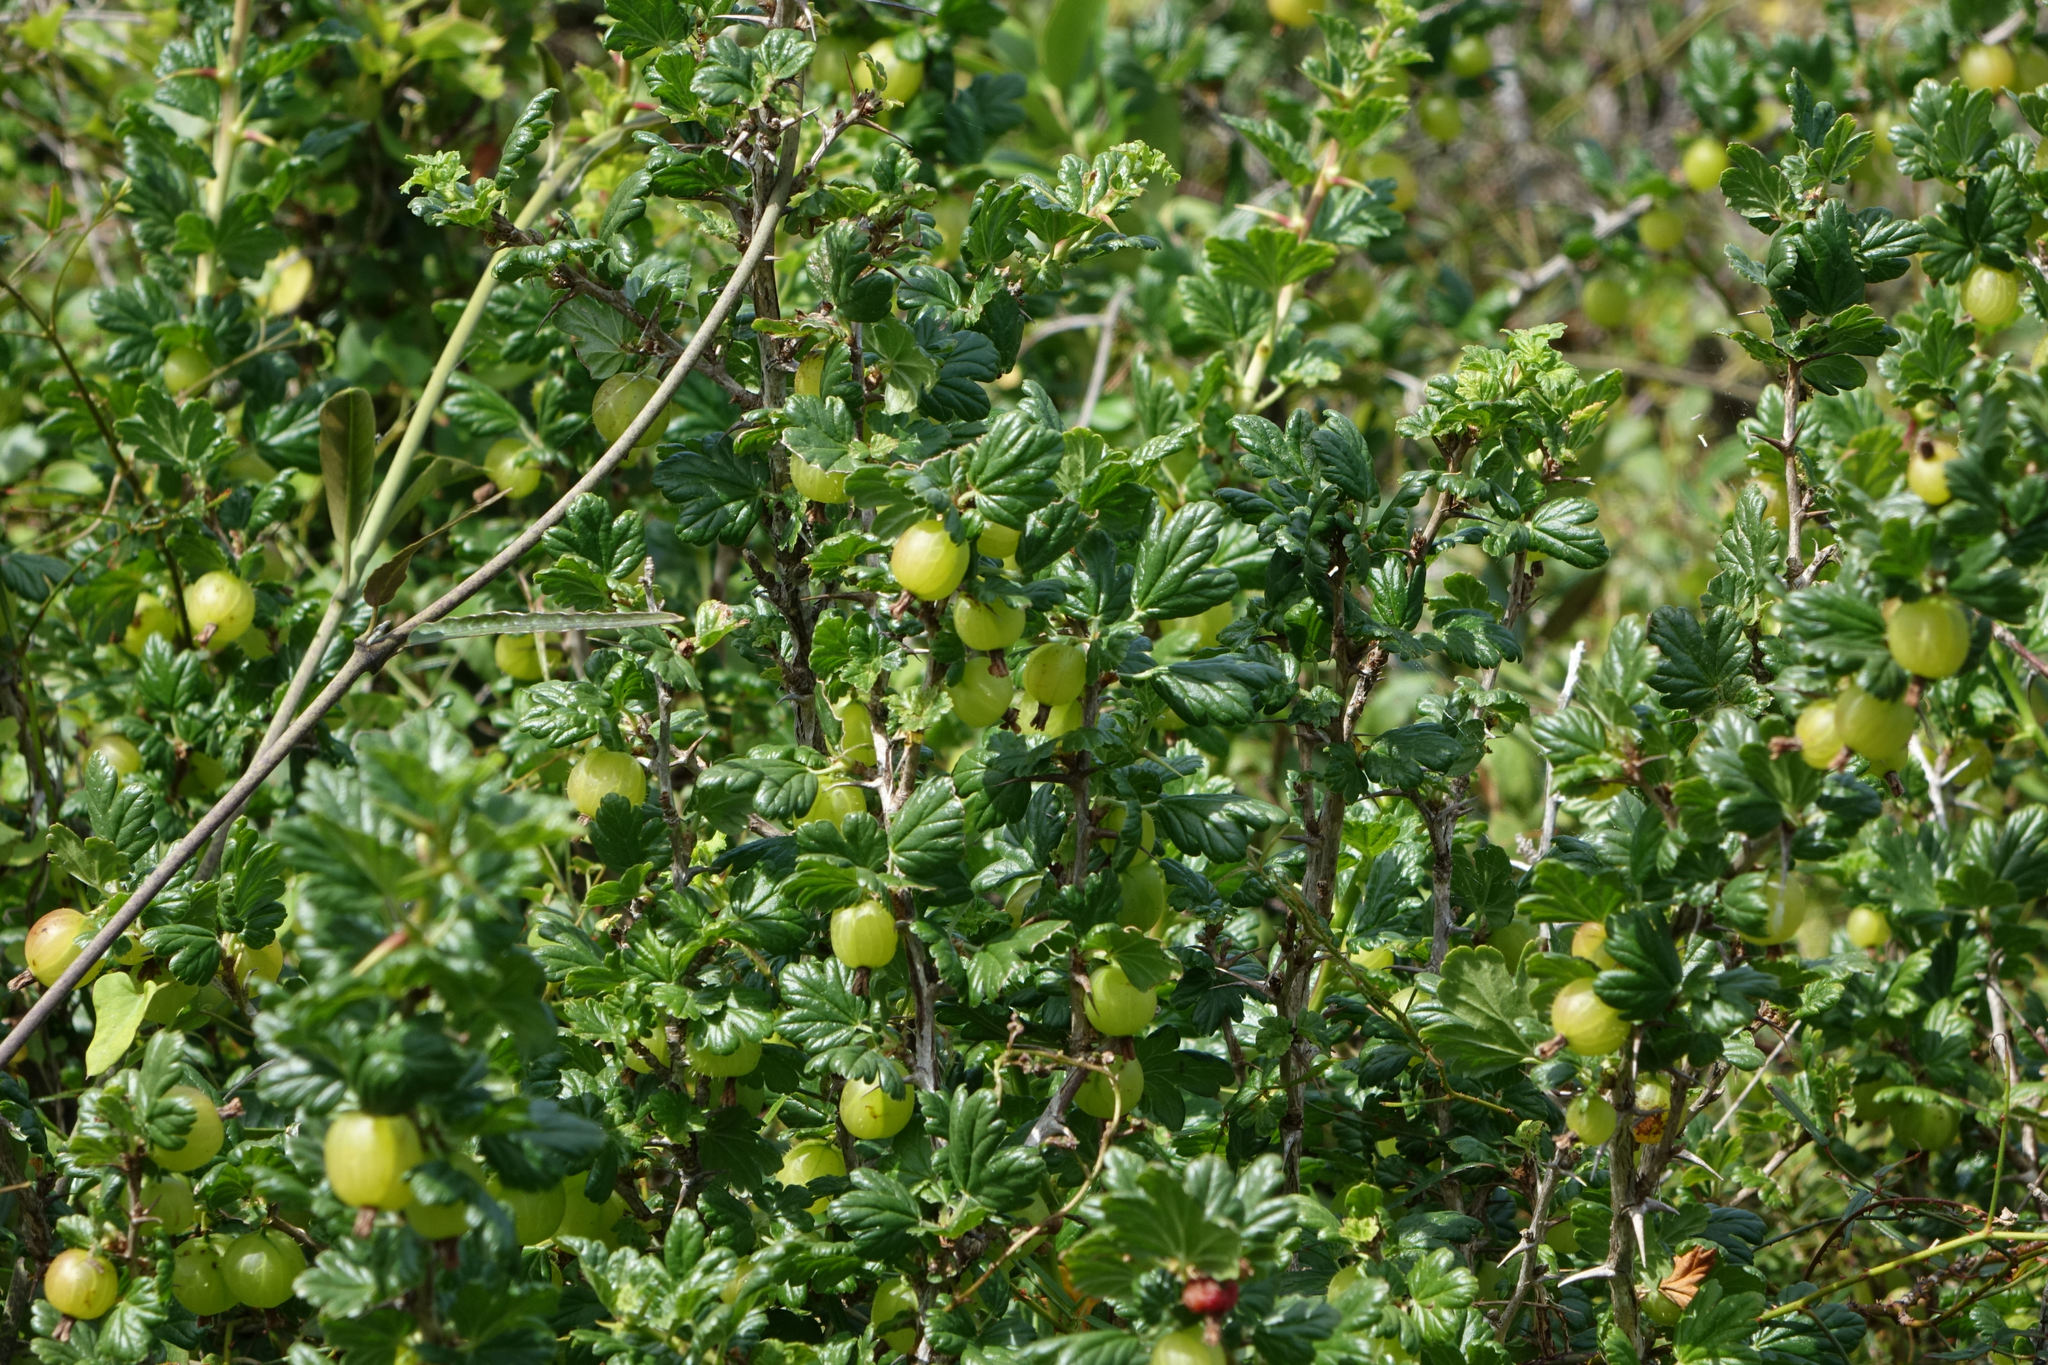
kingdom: Plantae
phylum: Tracheophyta
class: Magnoliopsida
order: Saxifragales
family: Grossulariaceae
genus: Ribes
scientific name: Ribes uva-crispa
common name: Gooseberry
